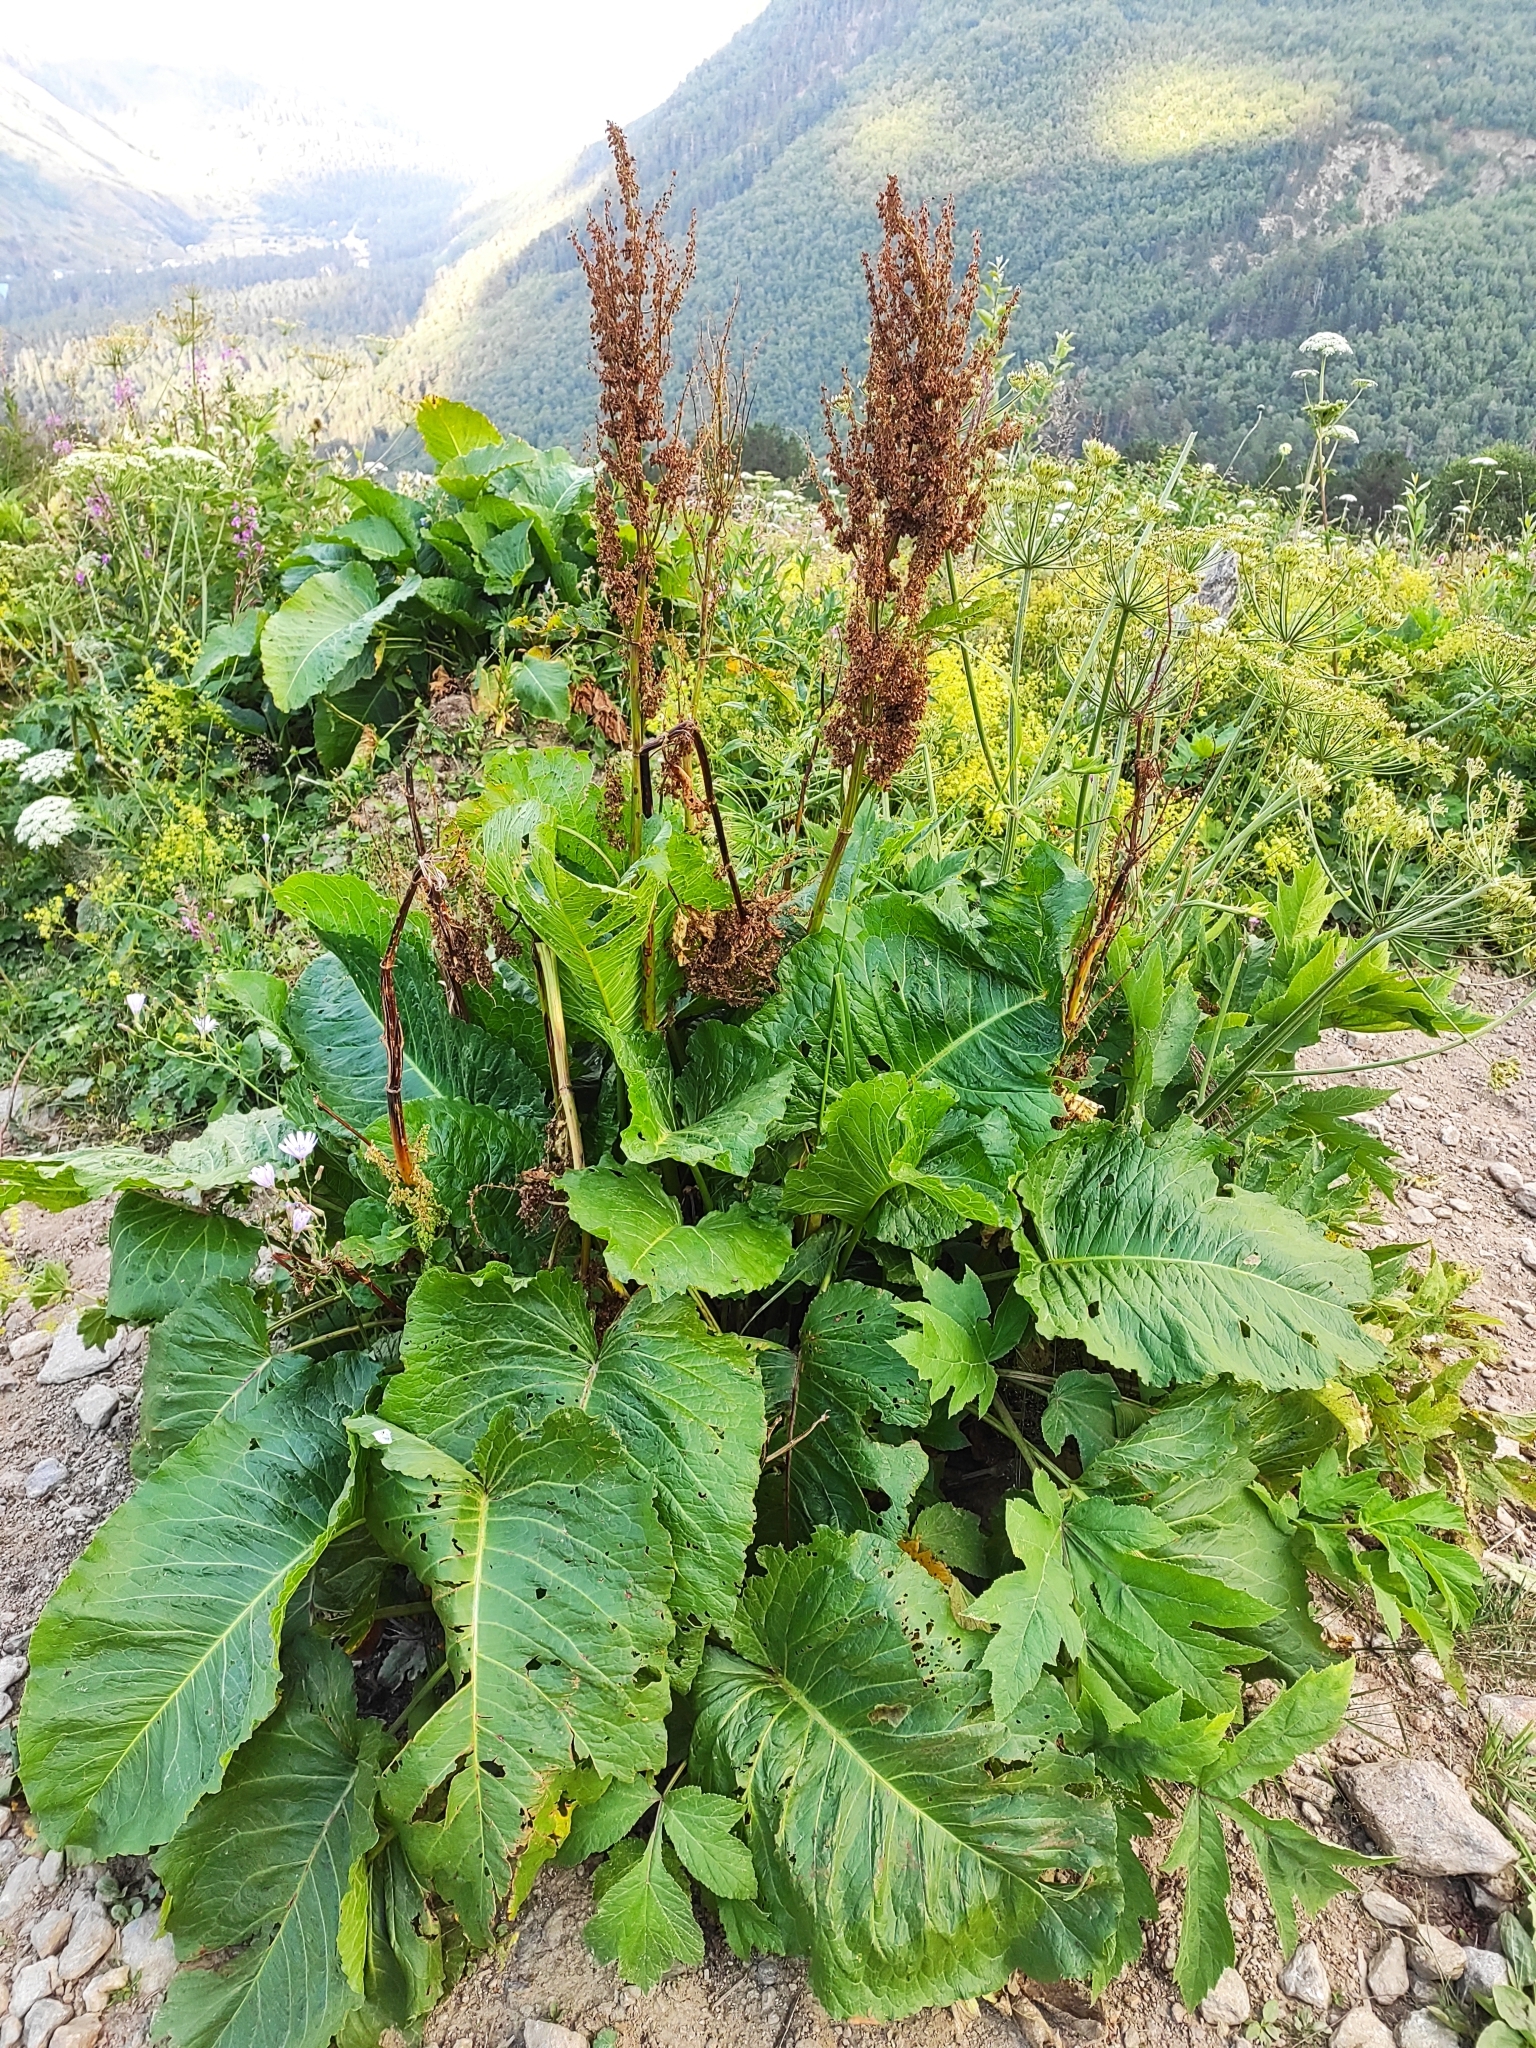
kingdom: Plantae
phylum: Tracheophyta
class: Magnoliopsida
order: Caryophyllales
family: Polygonaceae
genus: Rumex
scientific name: Rumex alpinus
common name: Alpine dock
